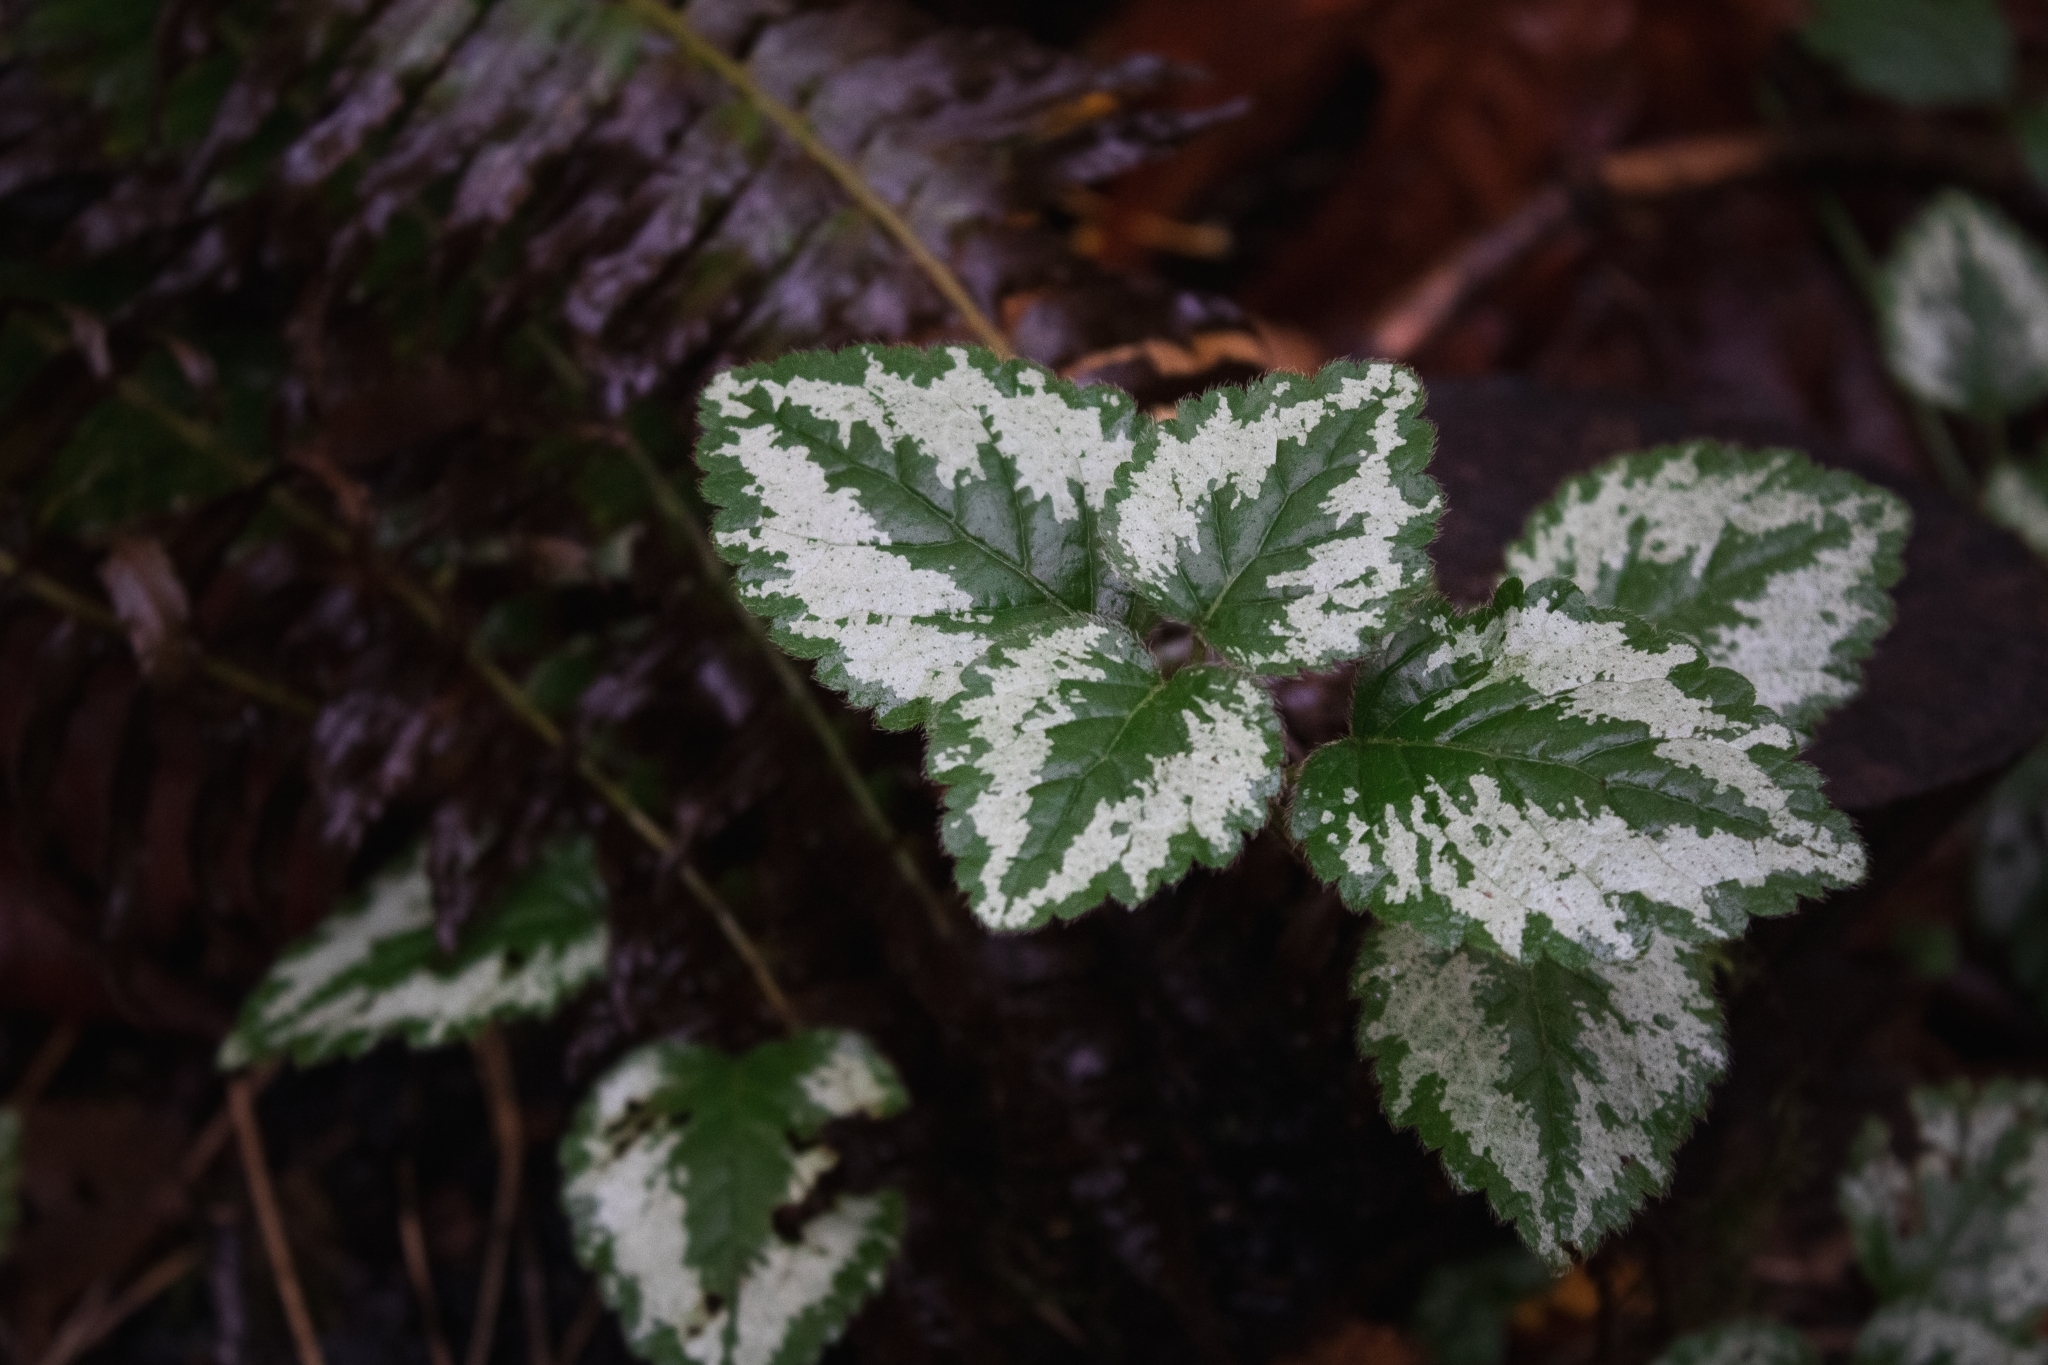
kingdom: Plantae
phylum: Tracheophyta
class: Magnoliopsida
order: Lamiales
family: Lamiaceae
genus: Lamium
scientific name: Lamium galeobdolon
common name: Yellow archangel
